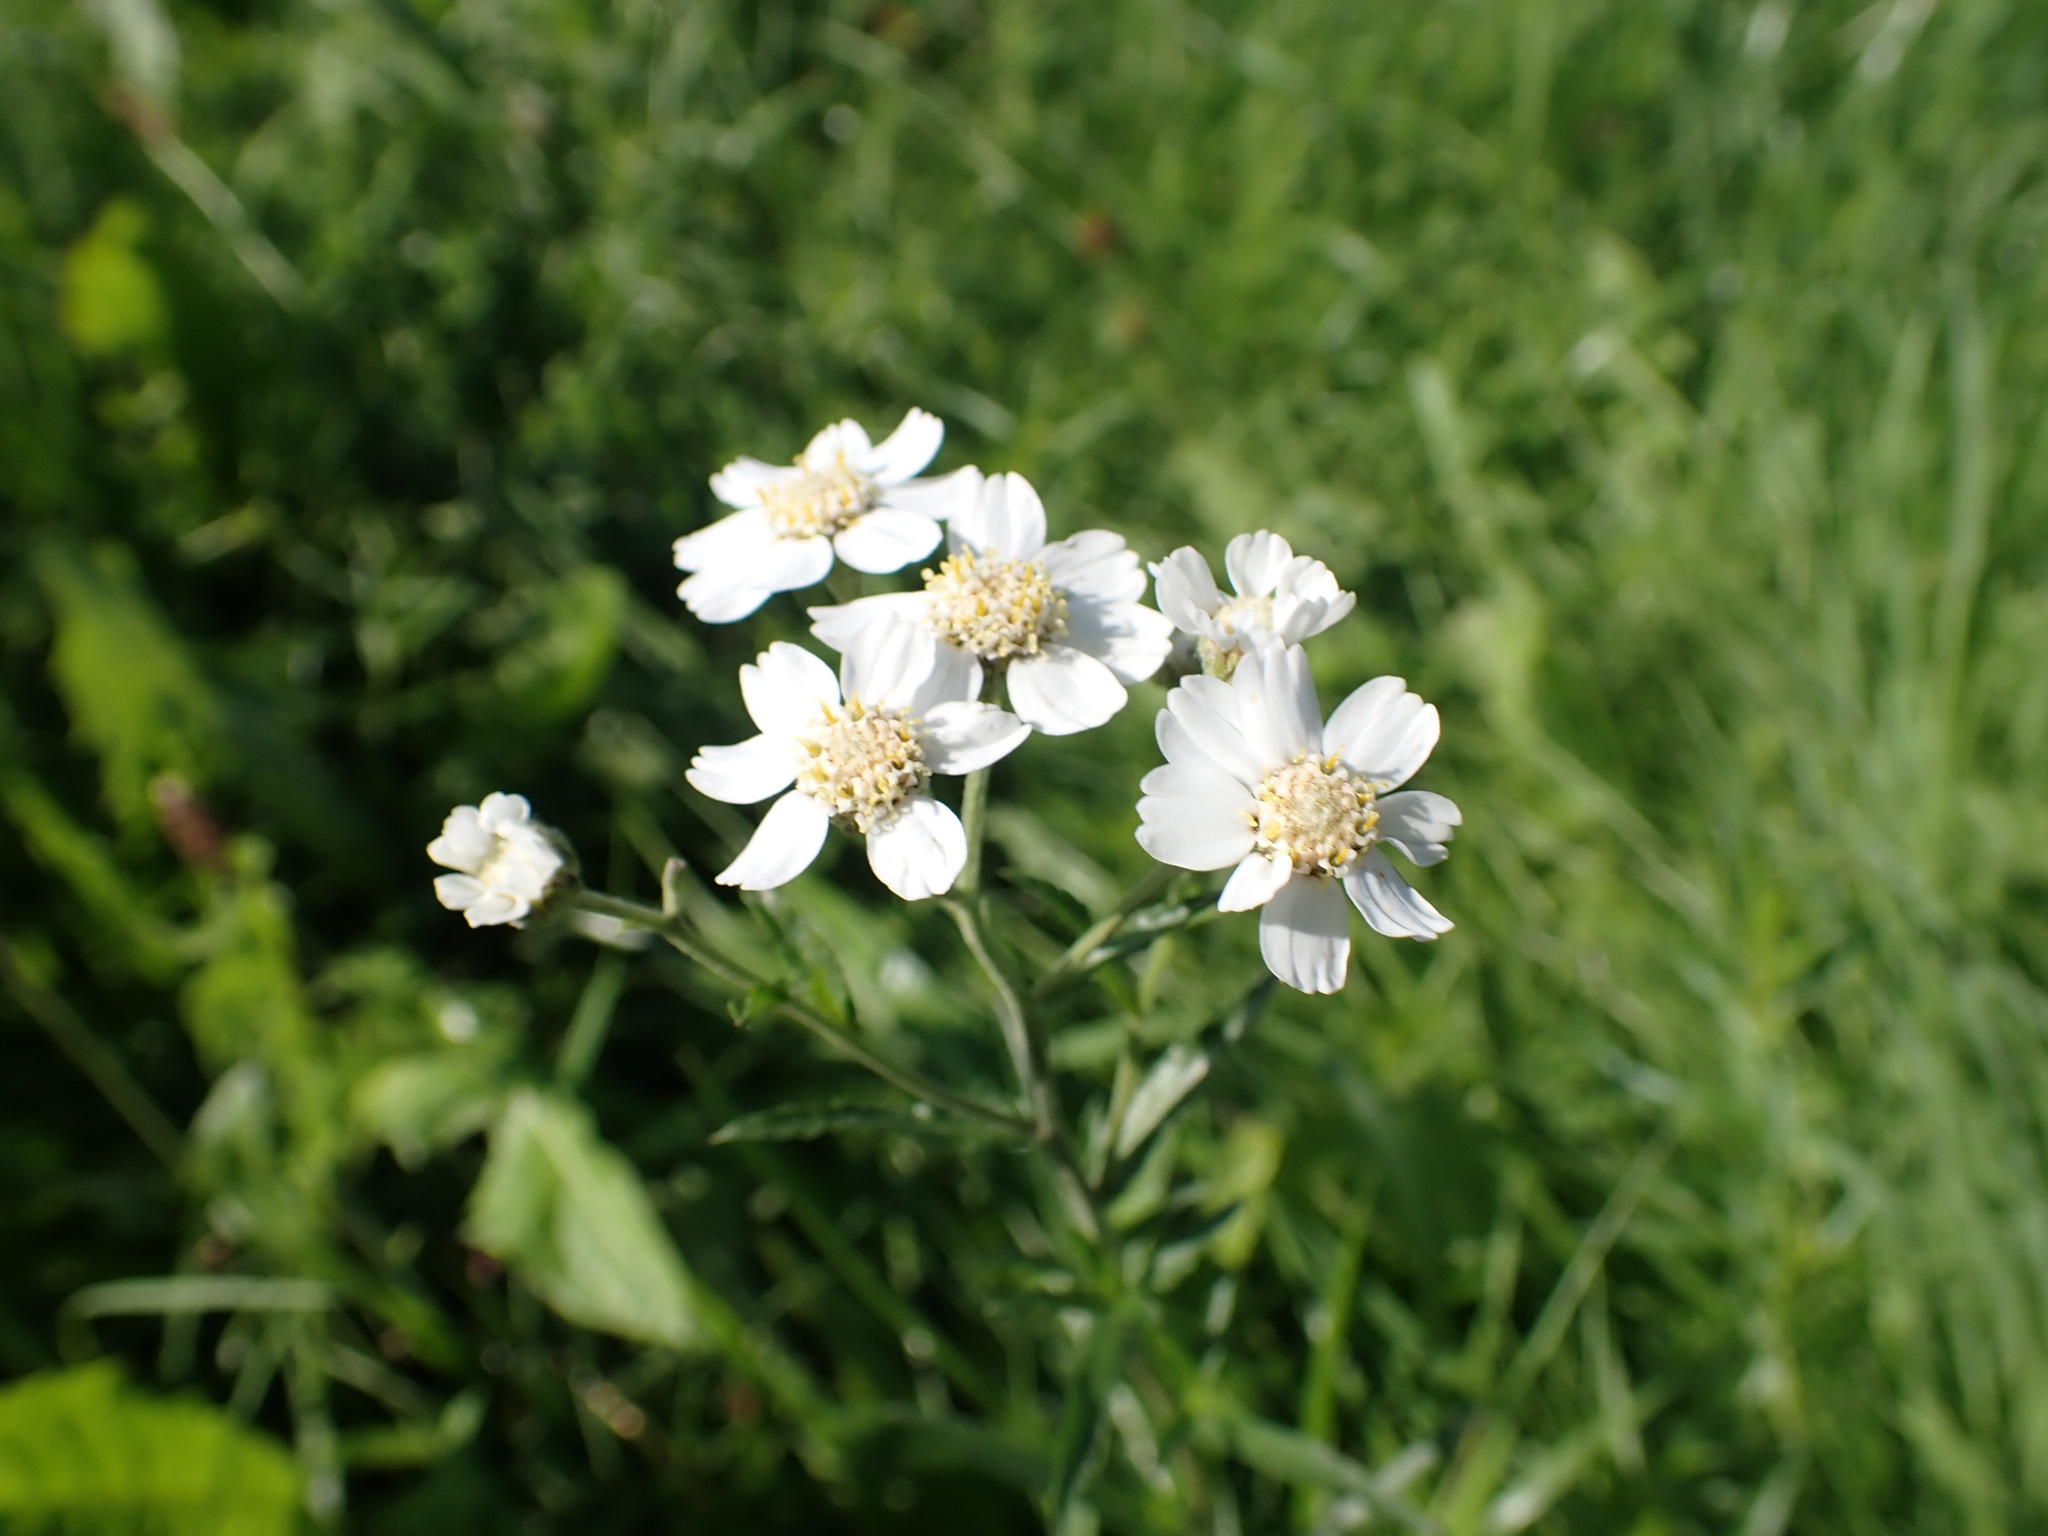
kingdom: Plantae
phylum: Tracheophyta
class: Magnoliopsida
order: Asterales
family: Asteraceae
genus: Achillea
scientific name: Achillea ptarmica
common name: Sneezeweed
